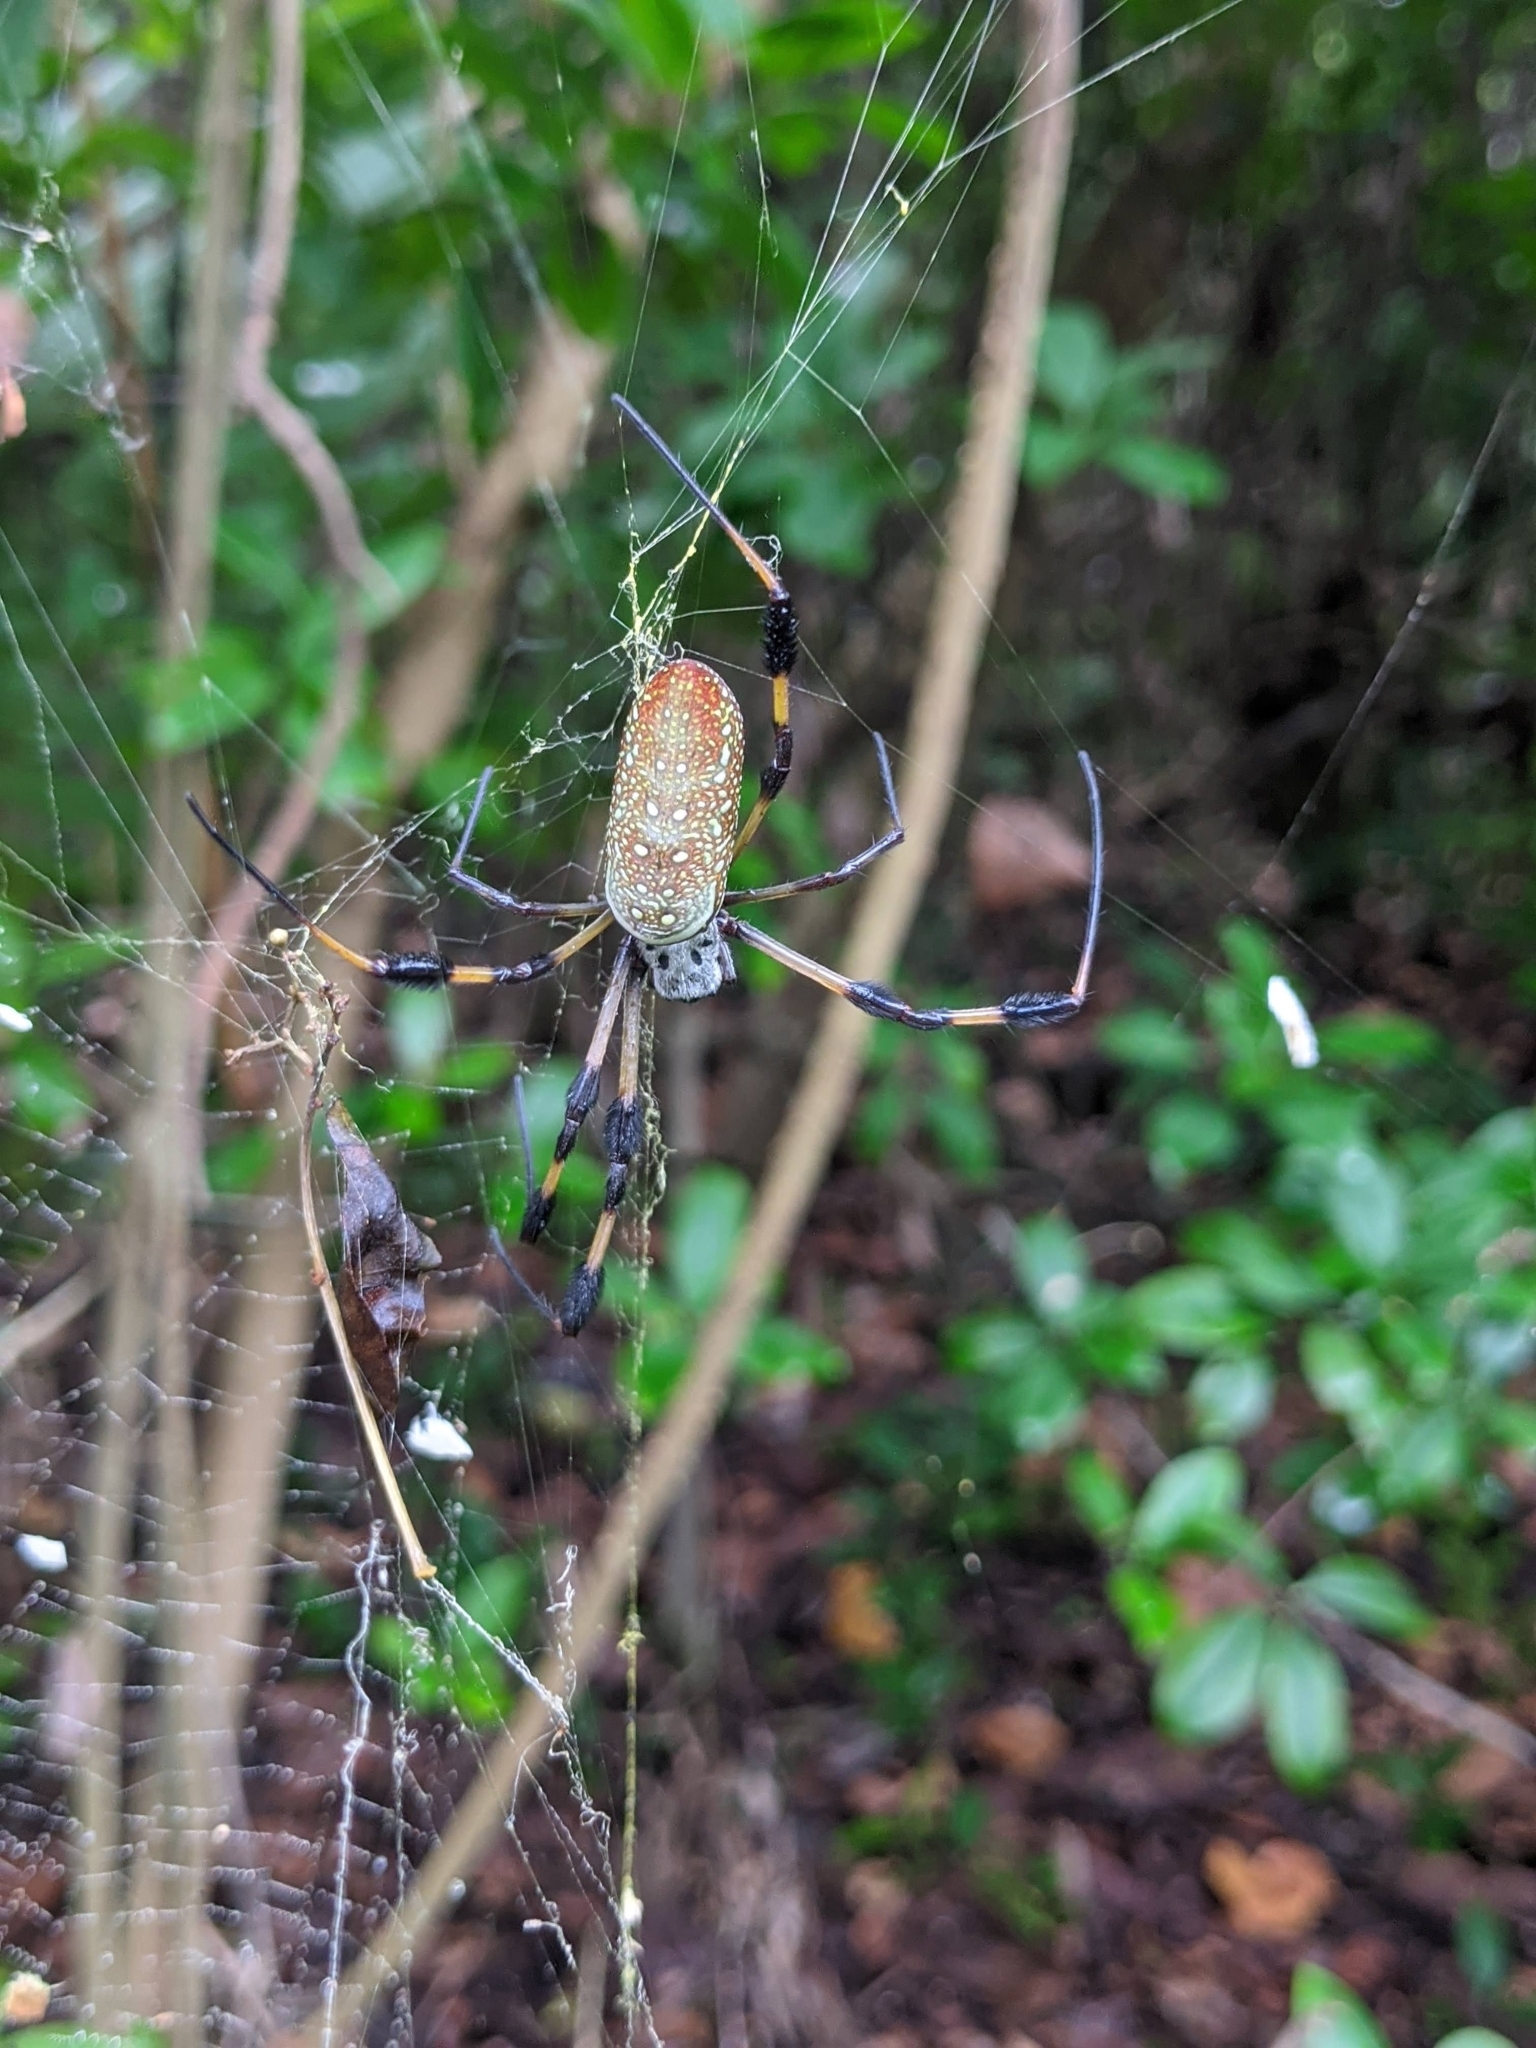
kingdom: Animalia
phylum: Arthropoda
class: Arachnida
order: Araneae
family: Araneidae
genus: Trichonephila
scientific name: Trichonephila clavipes
